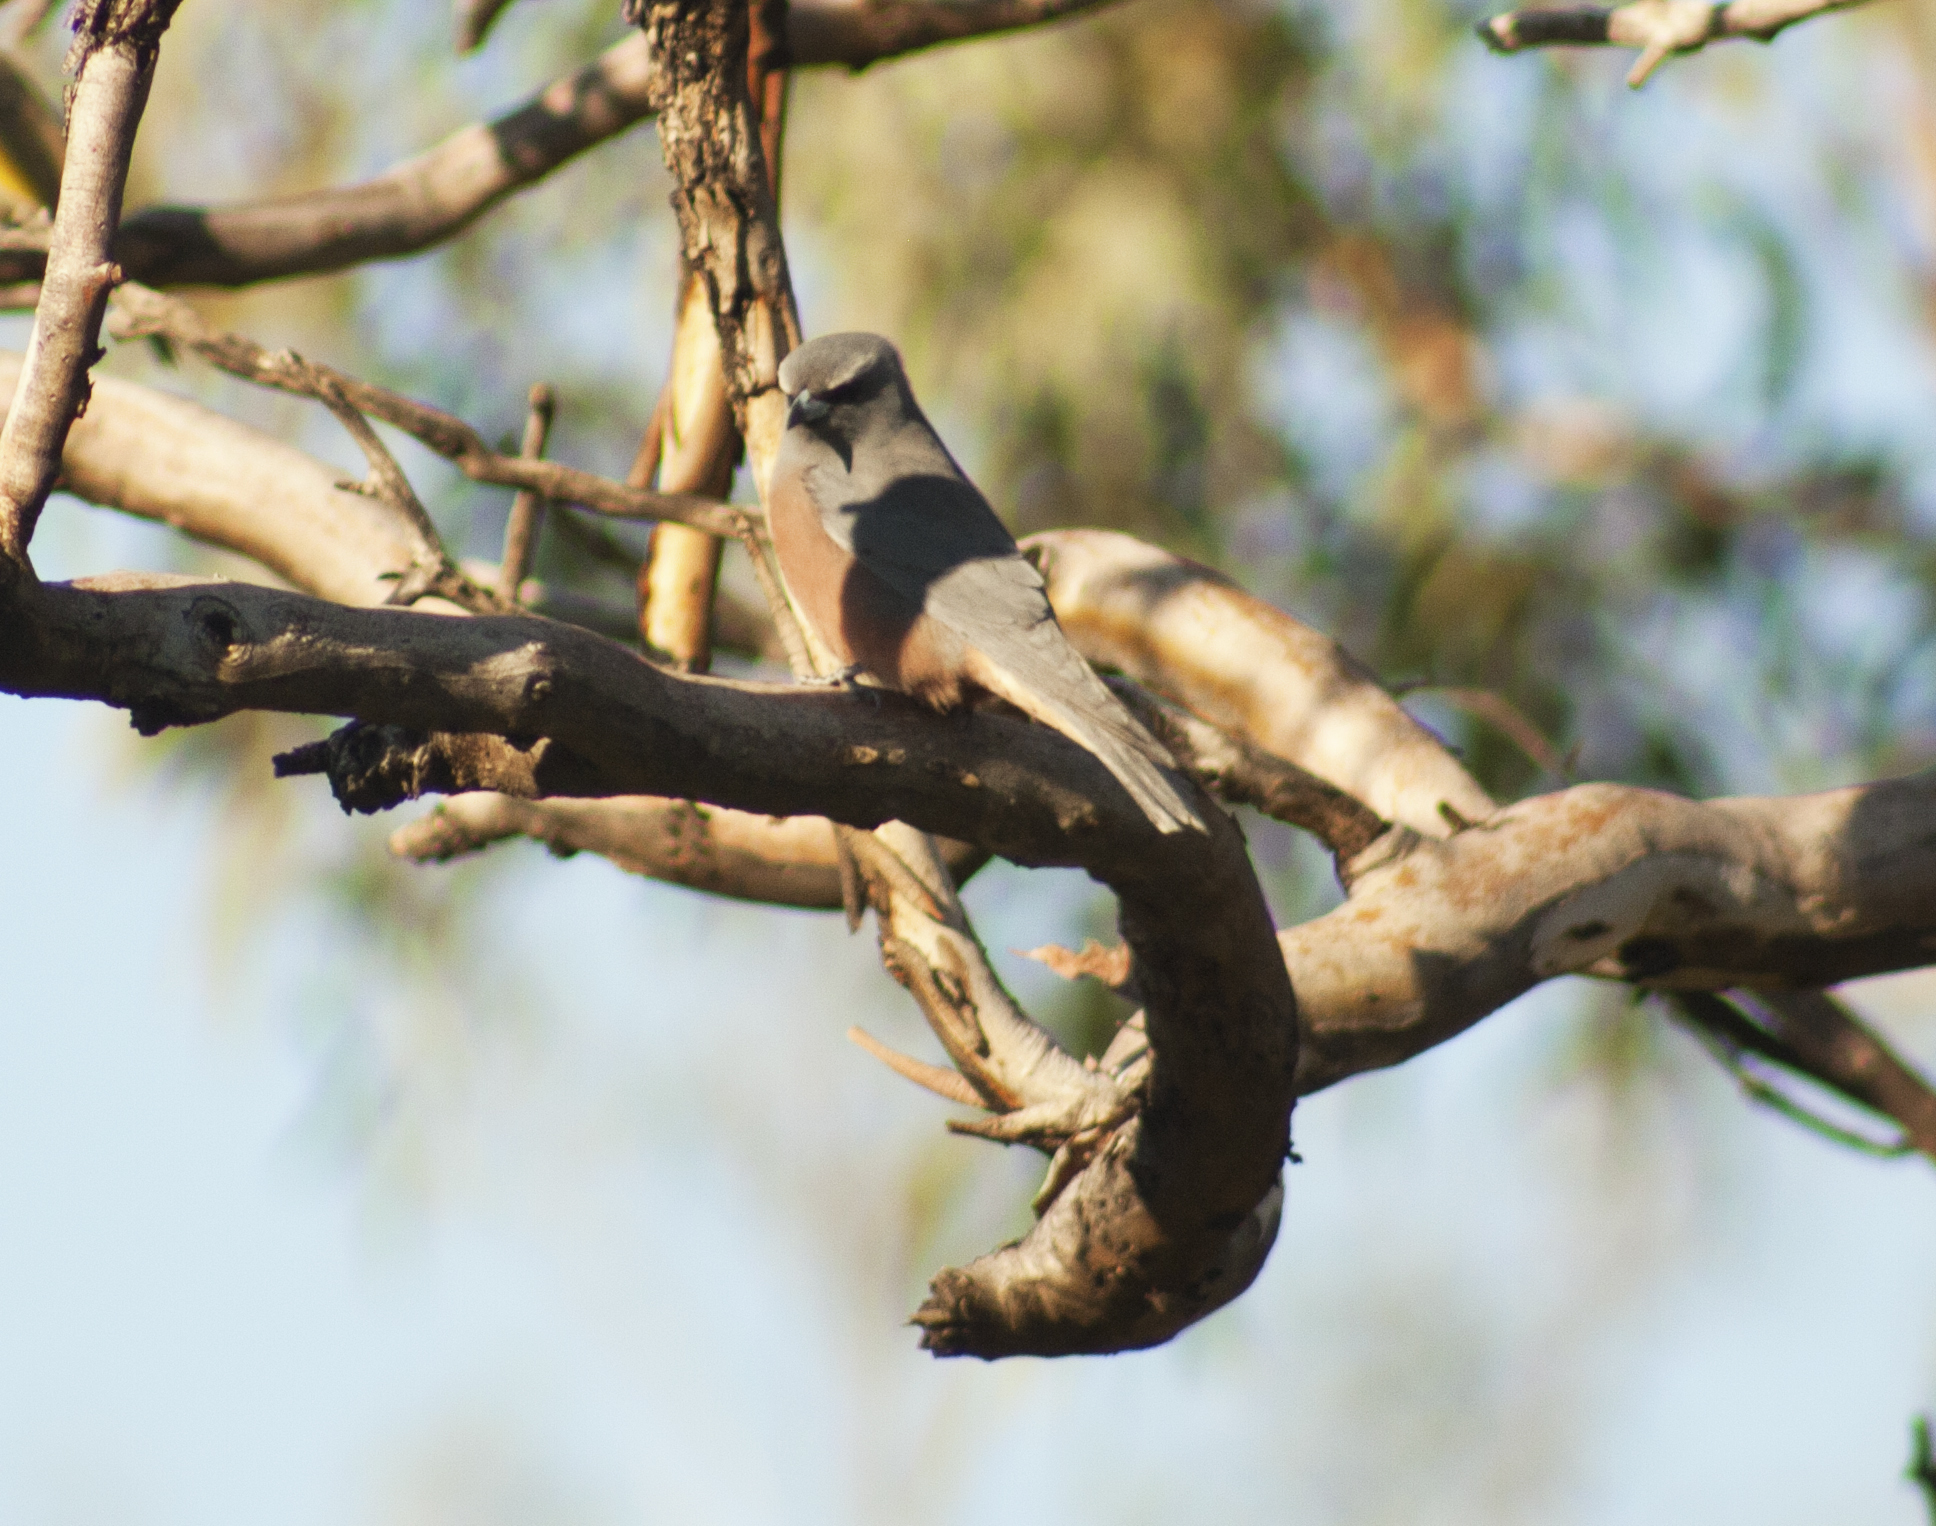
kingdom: Animalia
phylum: Chordata
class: Aves
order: Passeriformes
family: Artamidae
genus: Artamus
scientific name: Artamus superciliosus
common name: White-browed woodswallow
